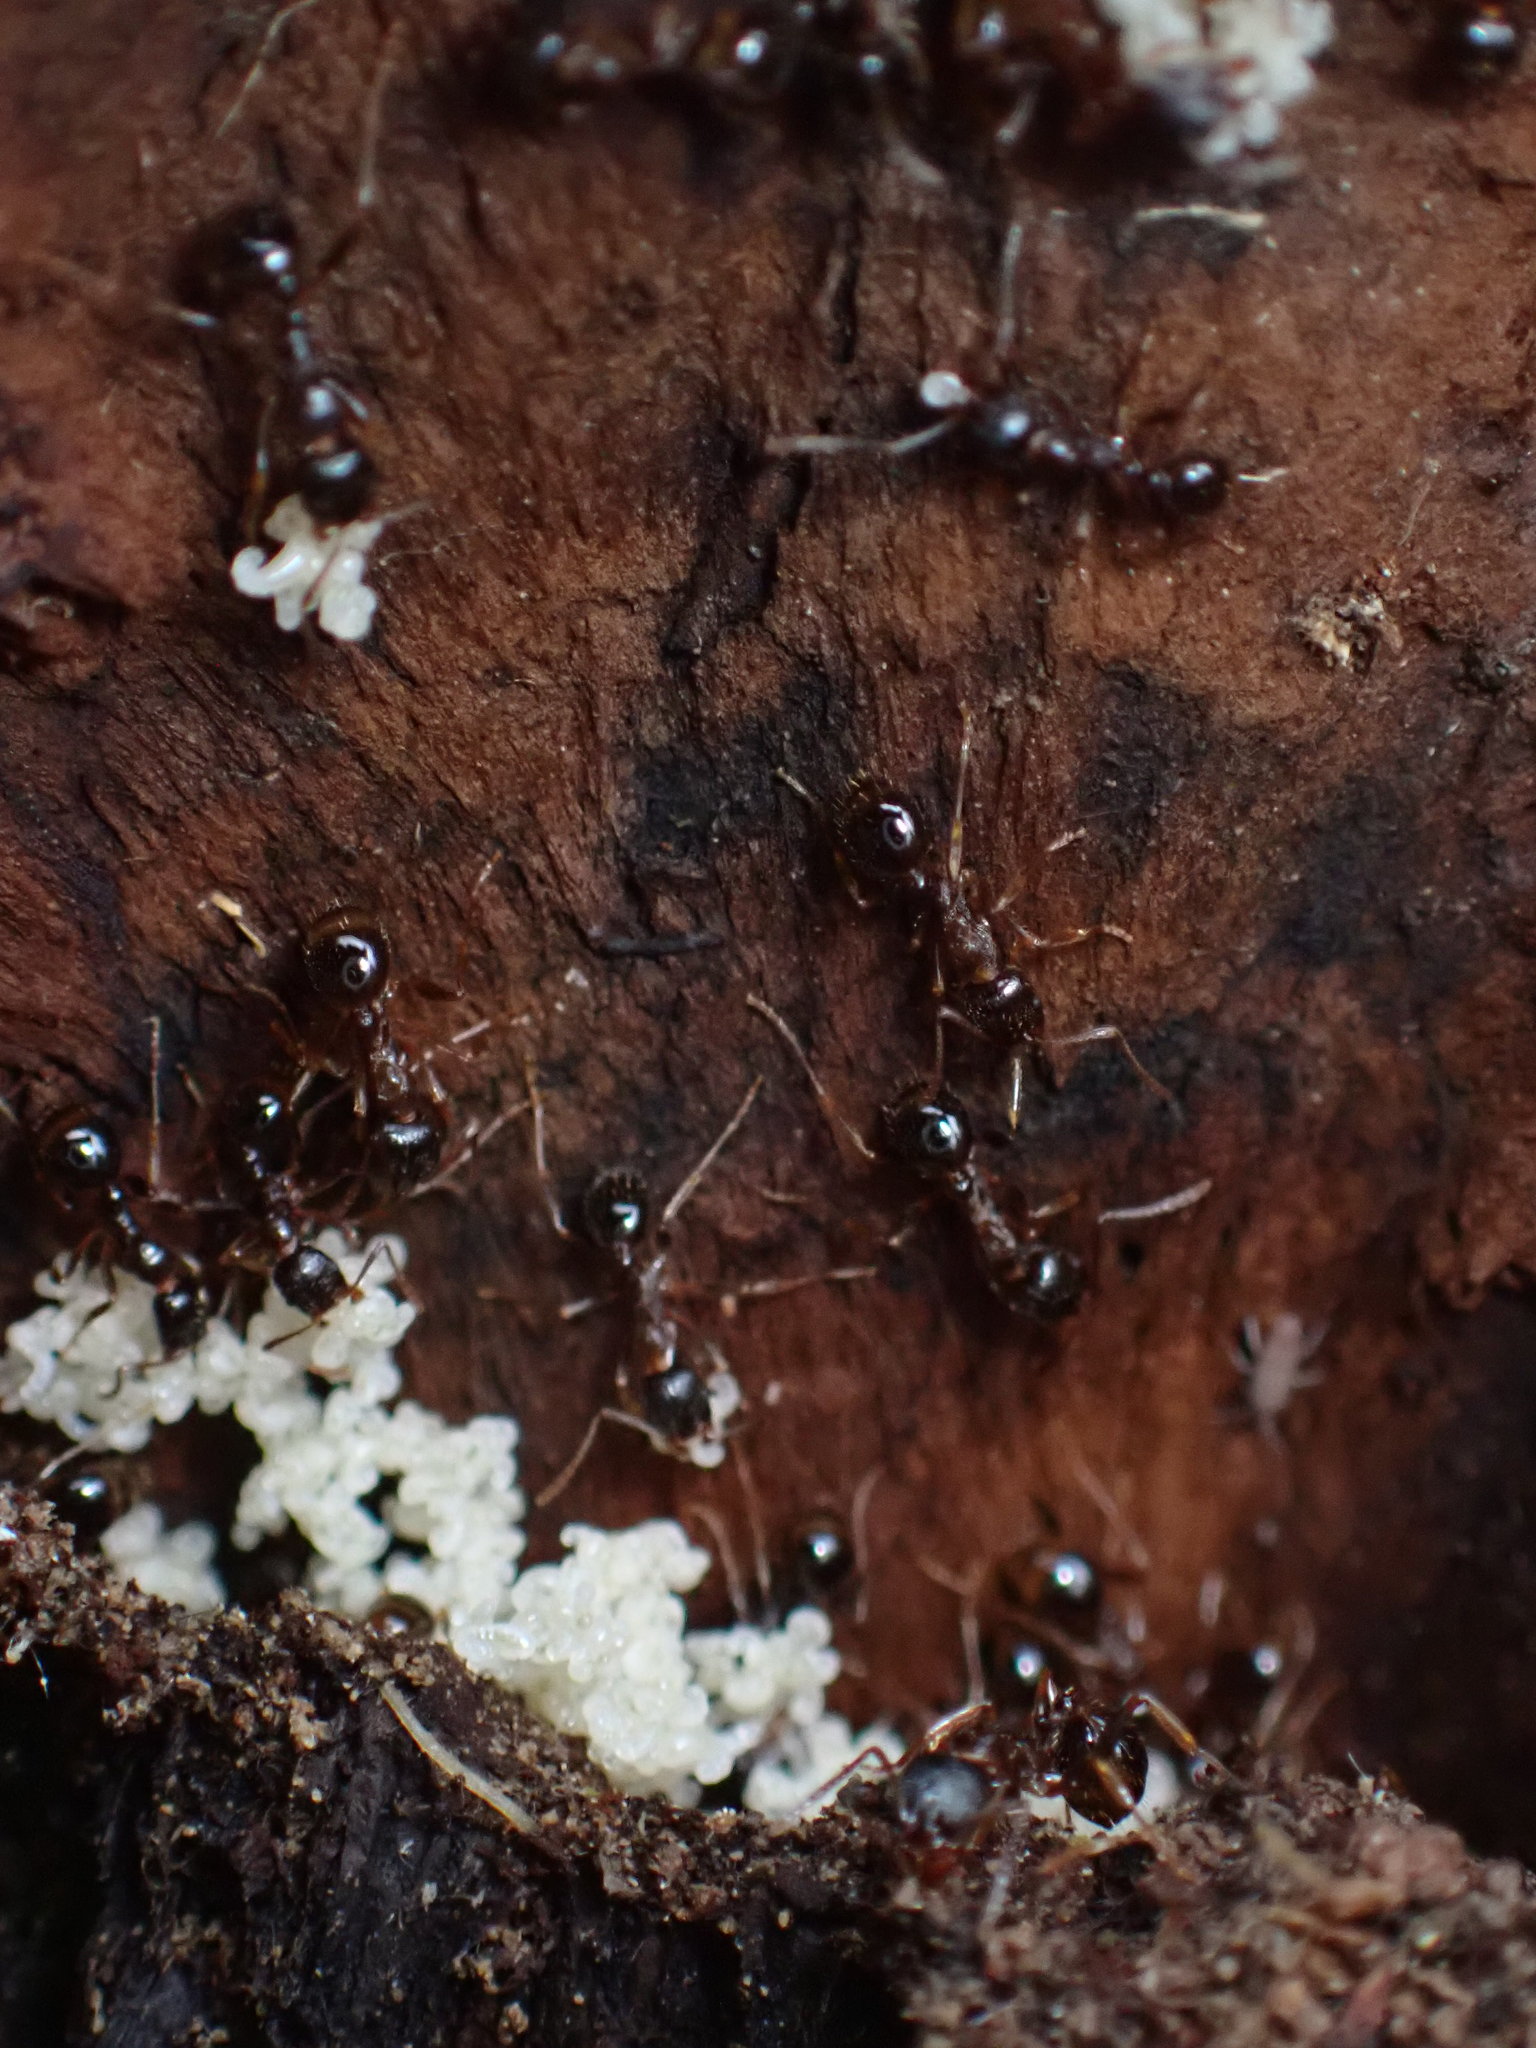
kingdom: Animalia
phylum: Arthropoda
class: Insecta
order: Hymenoptera
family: Formicidae
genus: Aphaenogaster
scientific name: Aphaenogaster occidentalis
